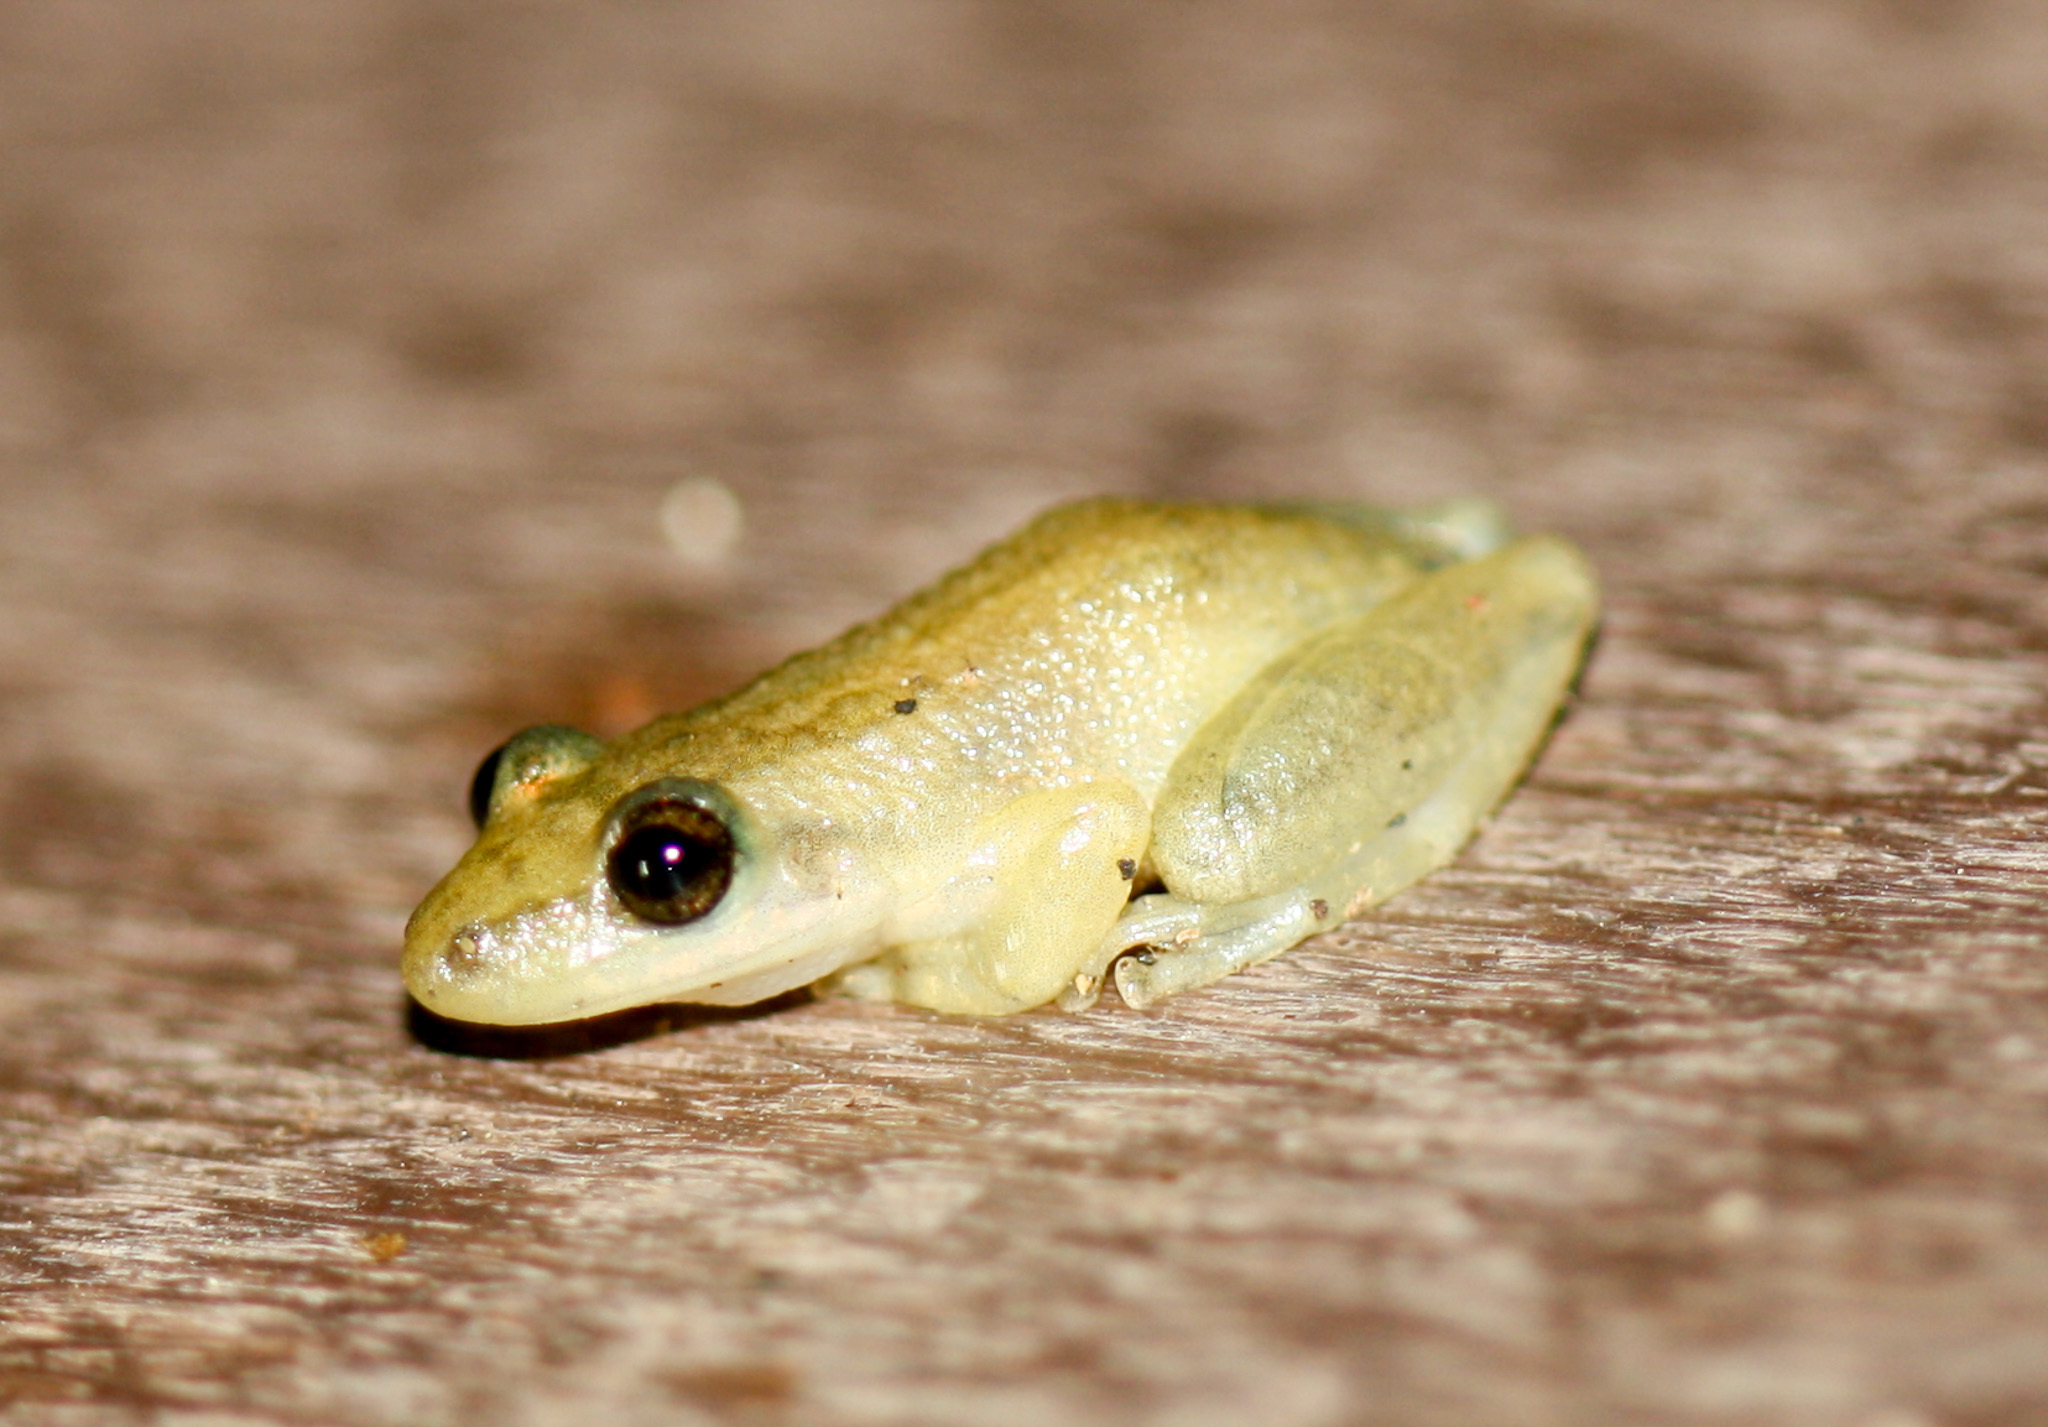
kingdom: Animalia
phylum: Chordata
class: Amphibia
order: Anura
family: Hylidae
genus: Scinax
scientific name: Scinax staufferi
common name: Stauffer's long-nosed treefrog
